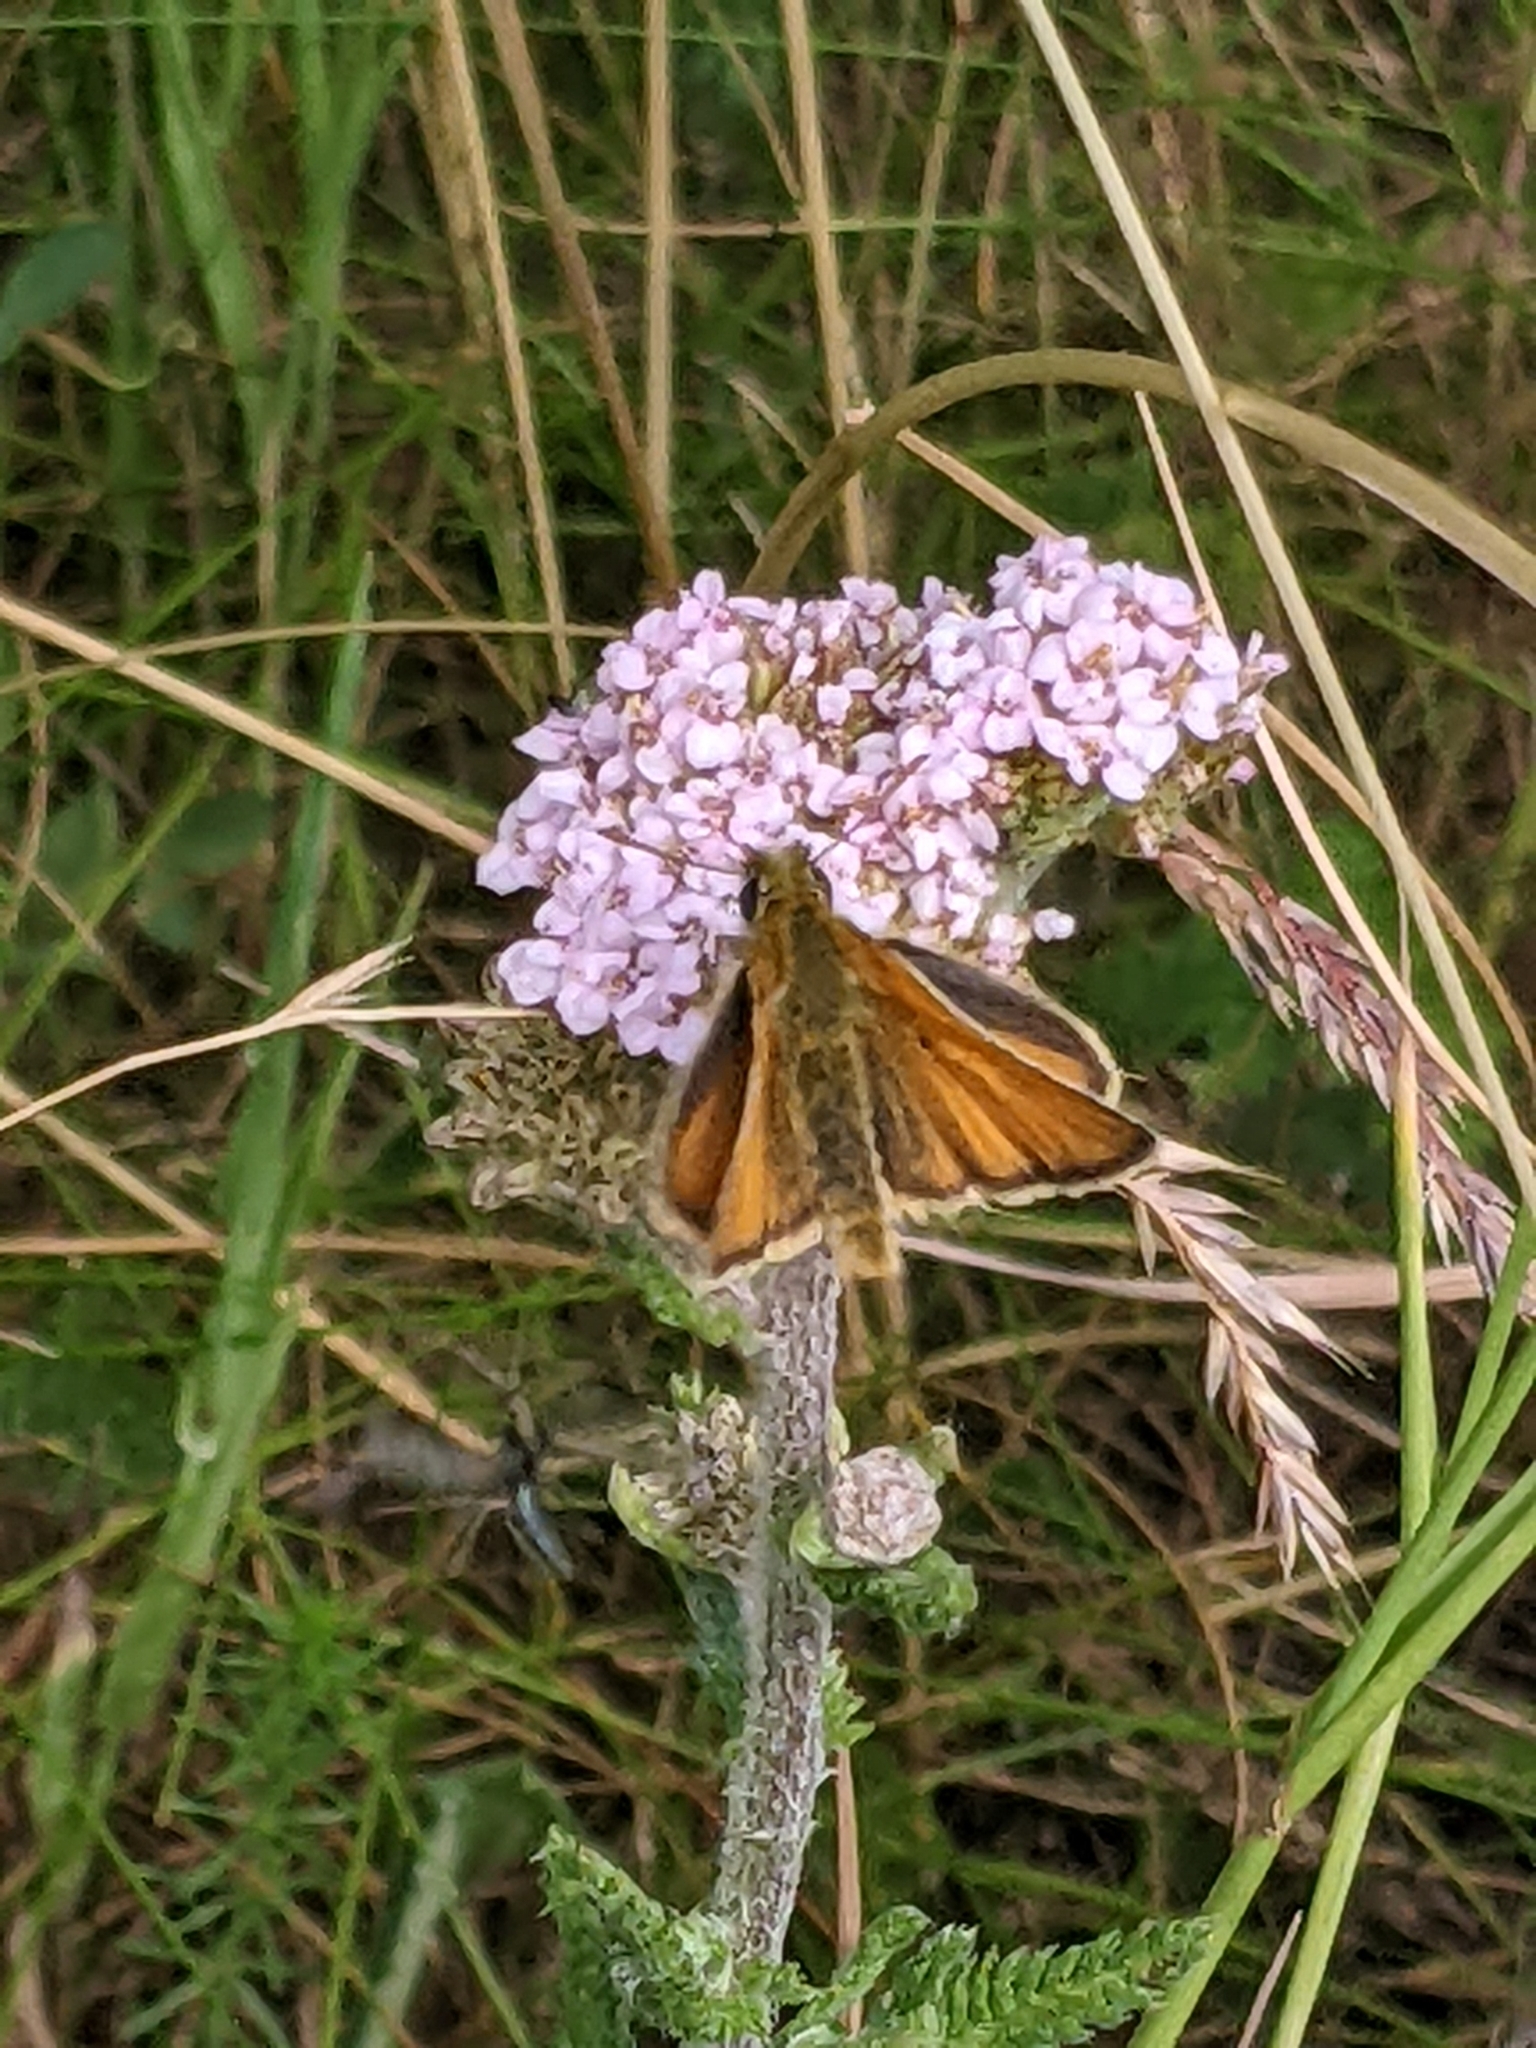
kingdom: Animalia
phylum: Arthropoda
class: Insecta
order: Lepidoptera
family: Hesperiidae
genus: Thymelicus
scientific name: Thymelicus sylvestris
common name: Small skipper
